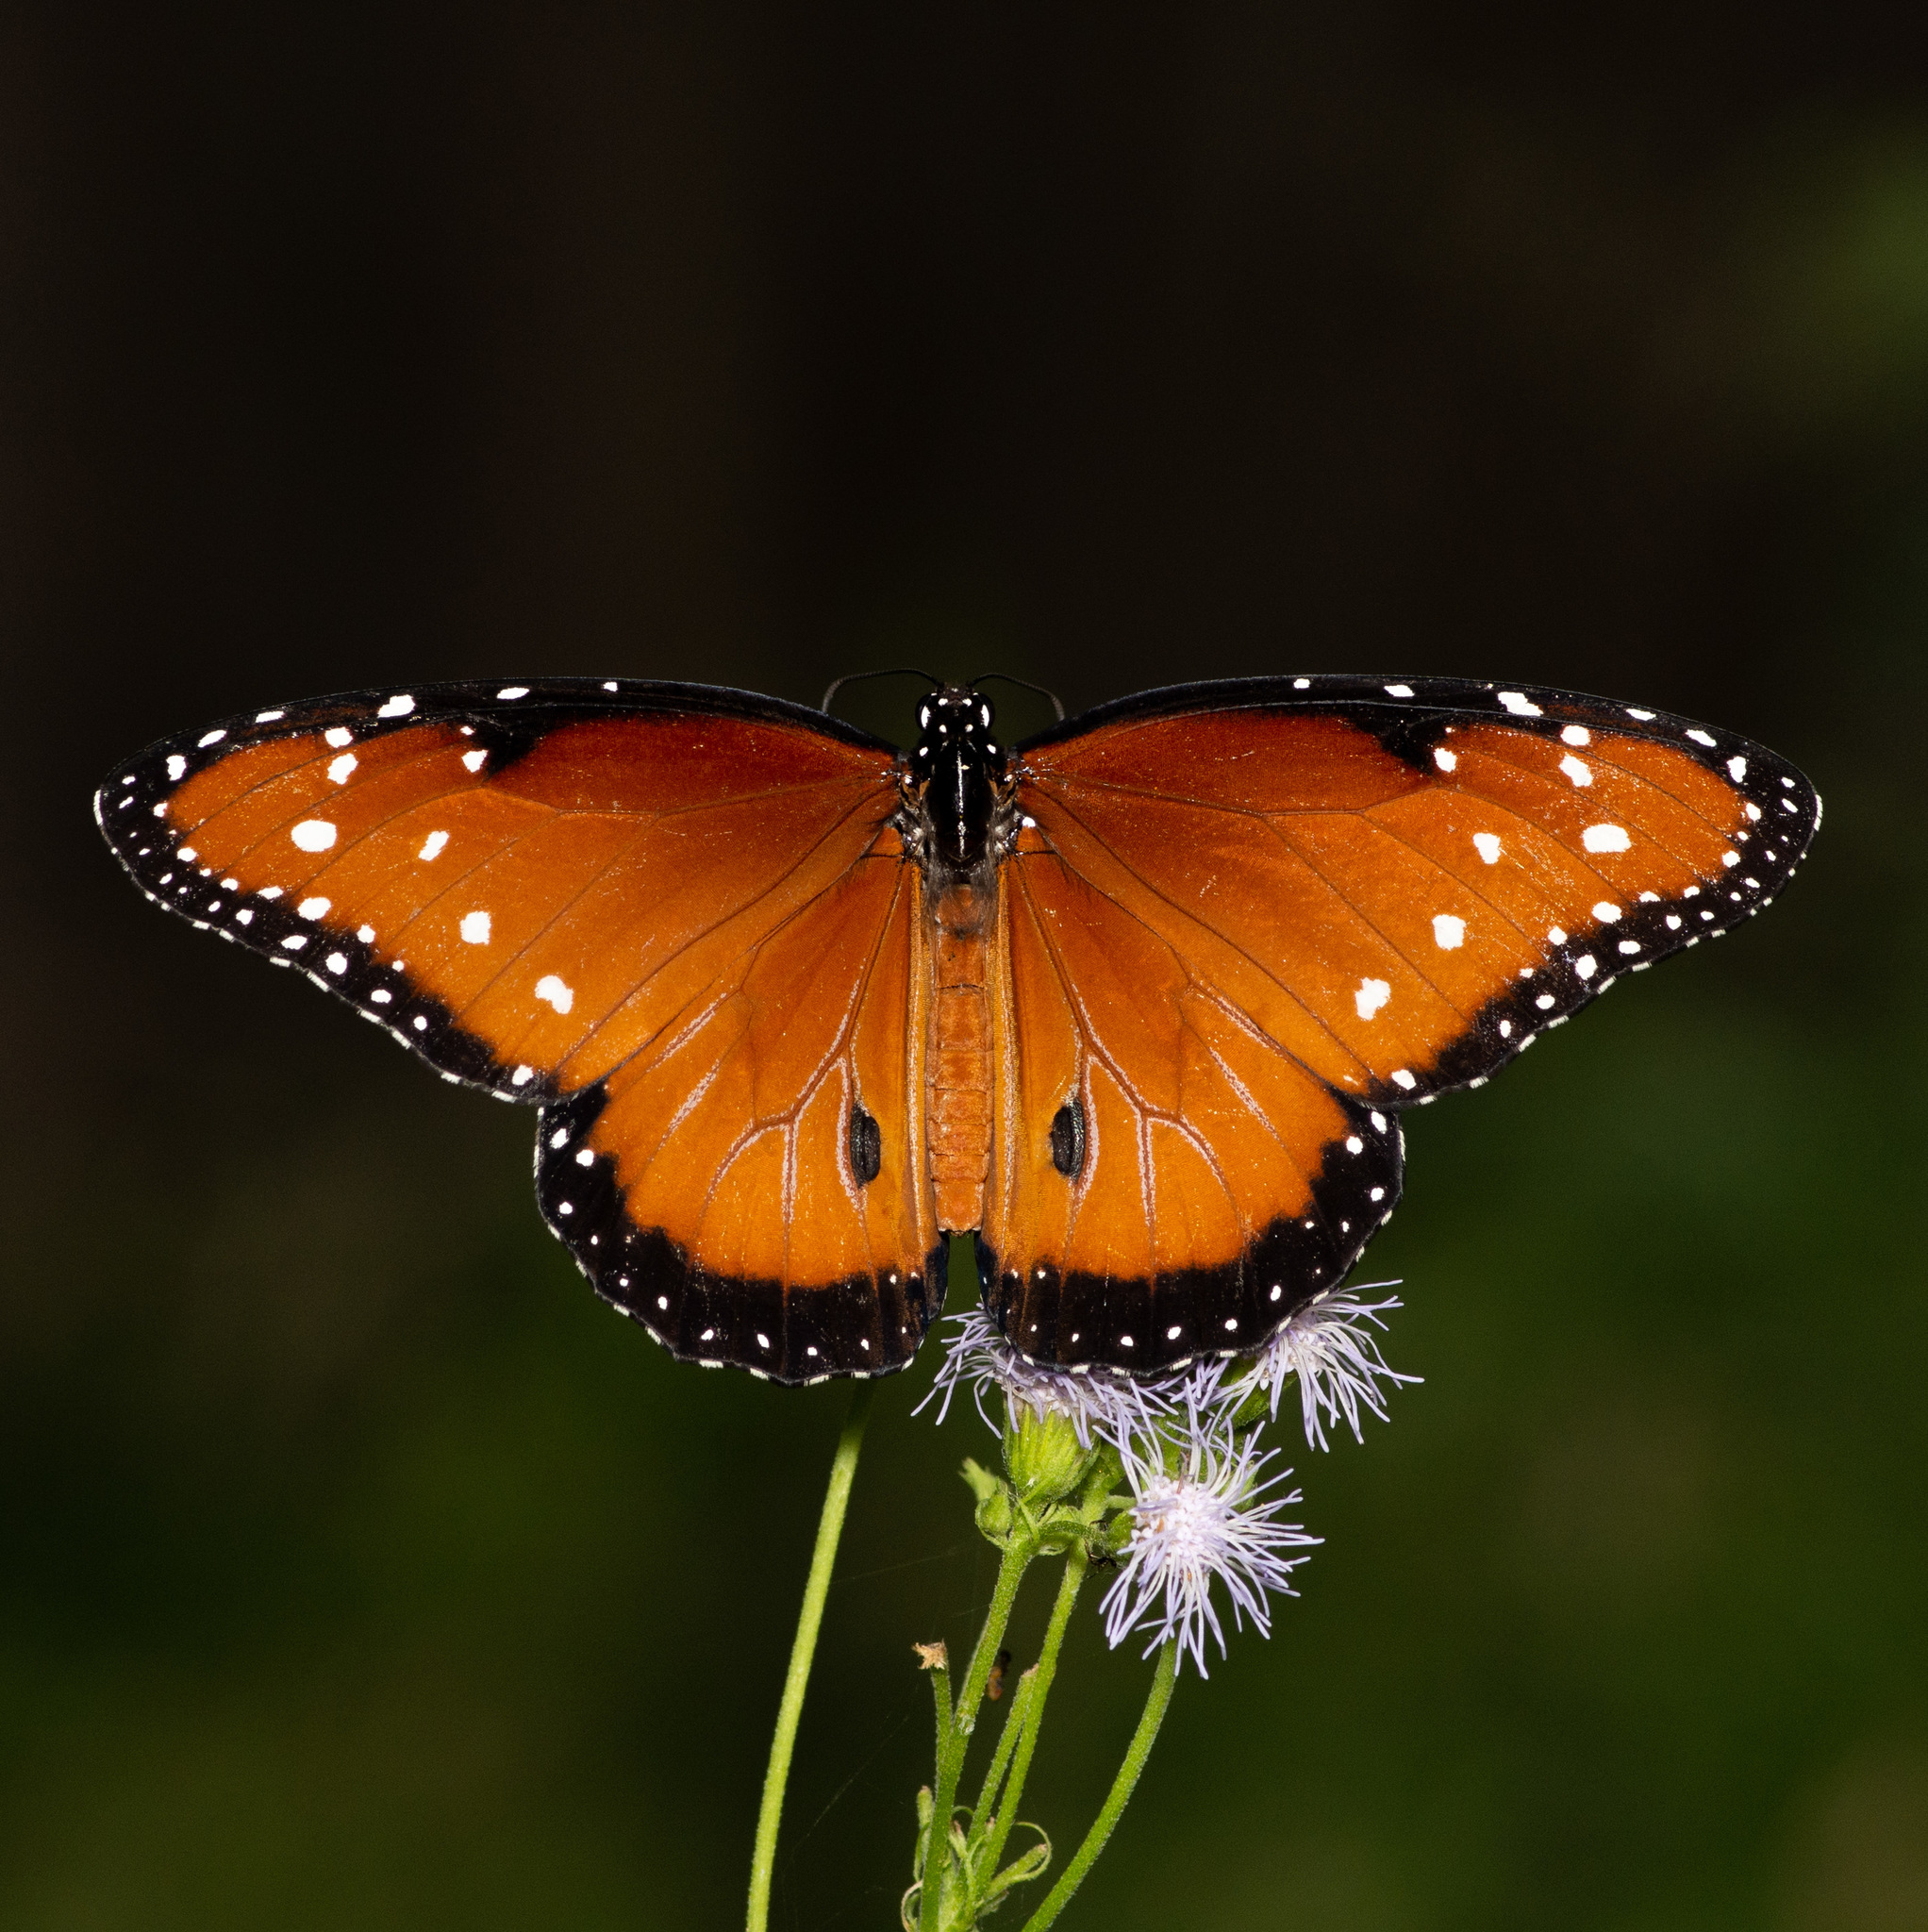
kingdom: Animalia
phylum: Arthropoda
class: Insecta
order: Lepidoptera
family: Nymphalidae
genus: Danaus
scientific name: Danaus gilippus
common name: Queen
